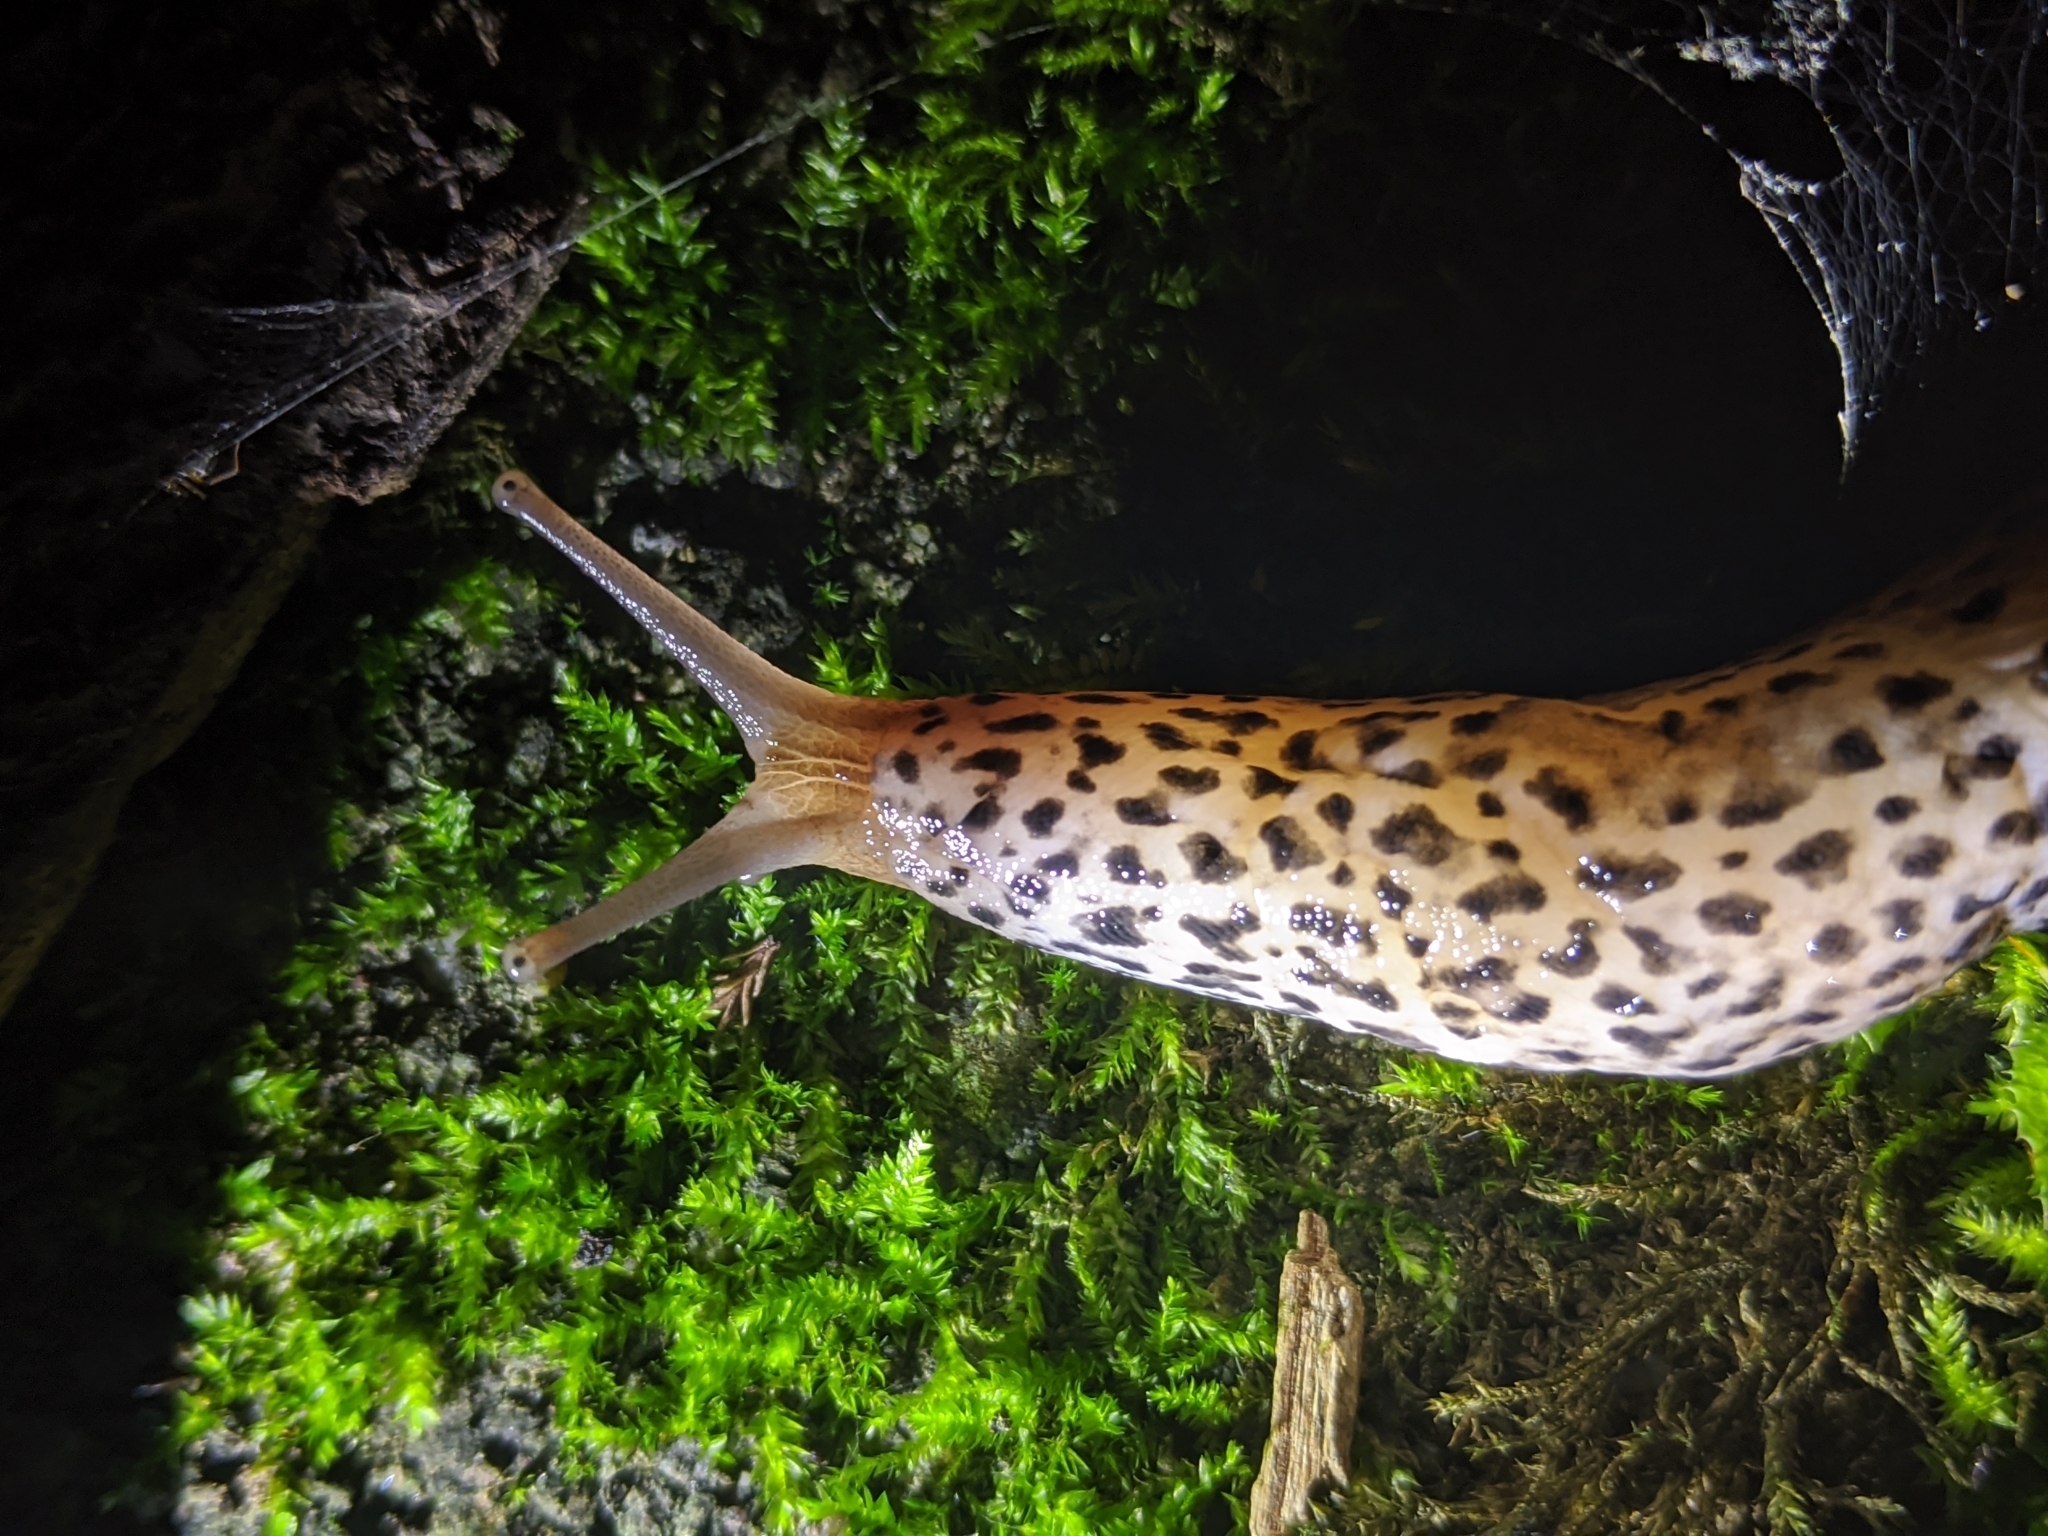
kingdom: Animalia
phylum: Mollusca
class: Gastropoda
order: Stylommatophora
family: Limacidae
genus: Limax
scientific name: Limax maximus
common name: Great grey slug
